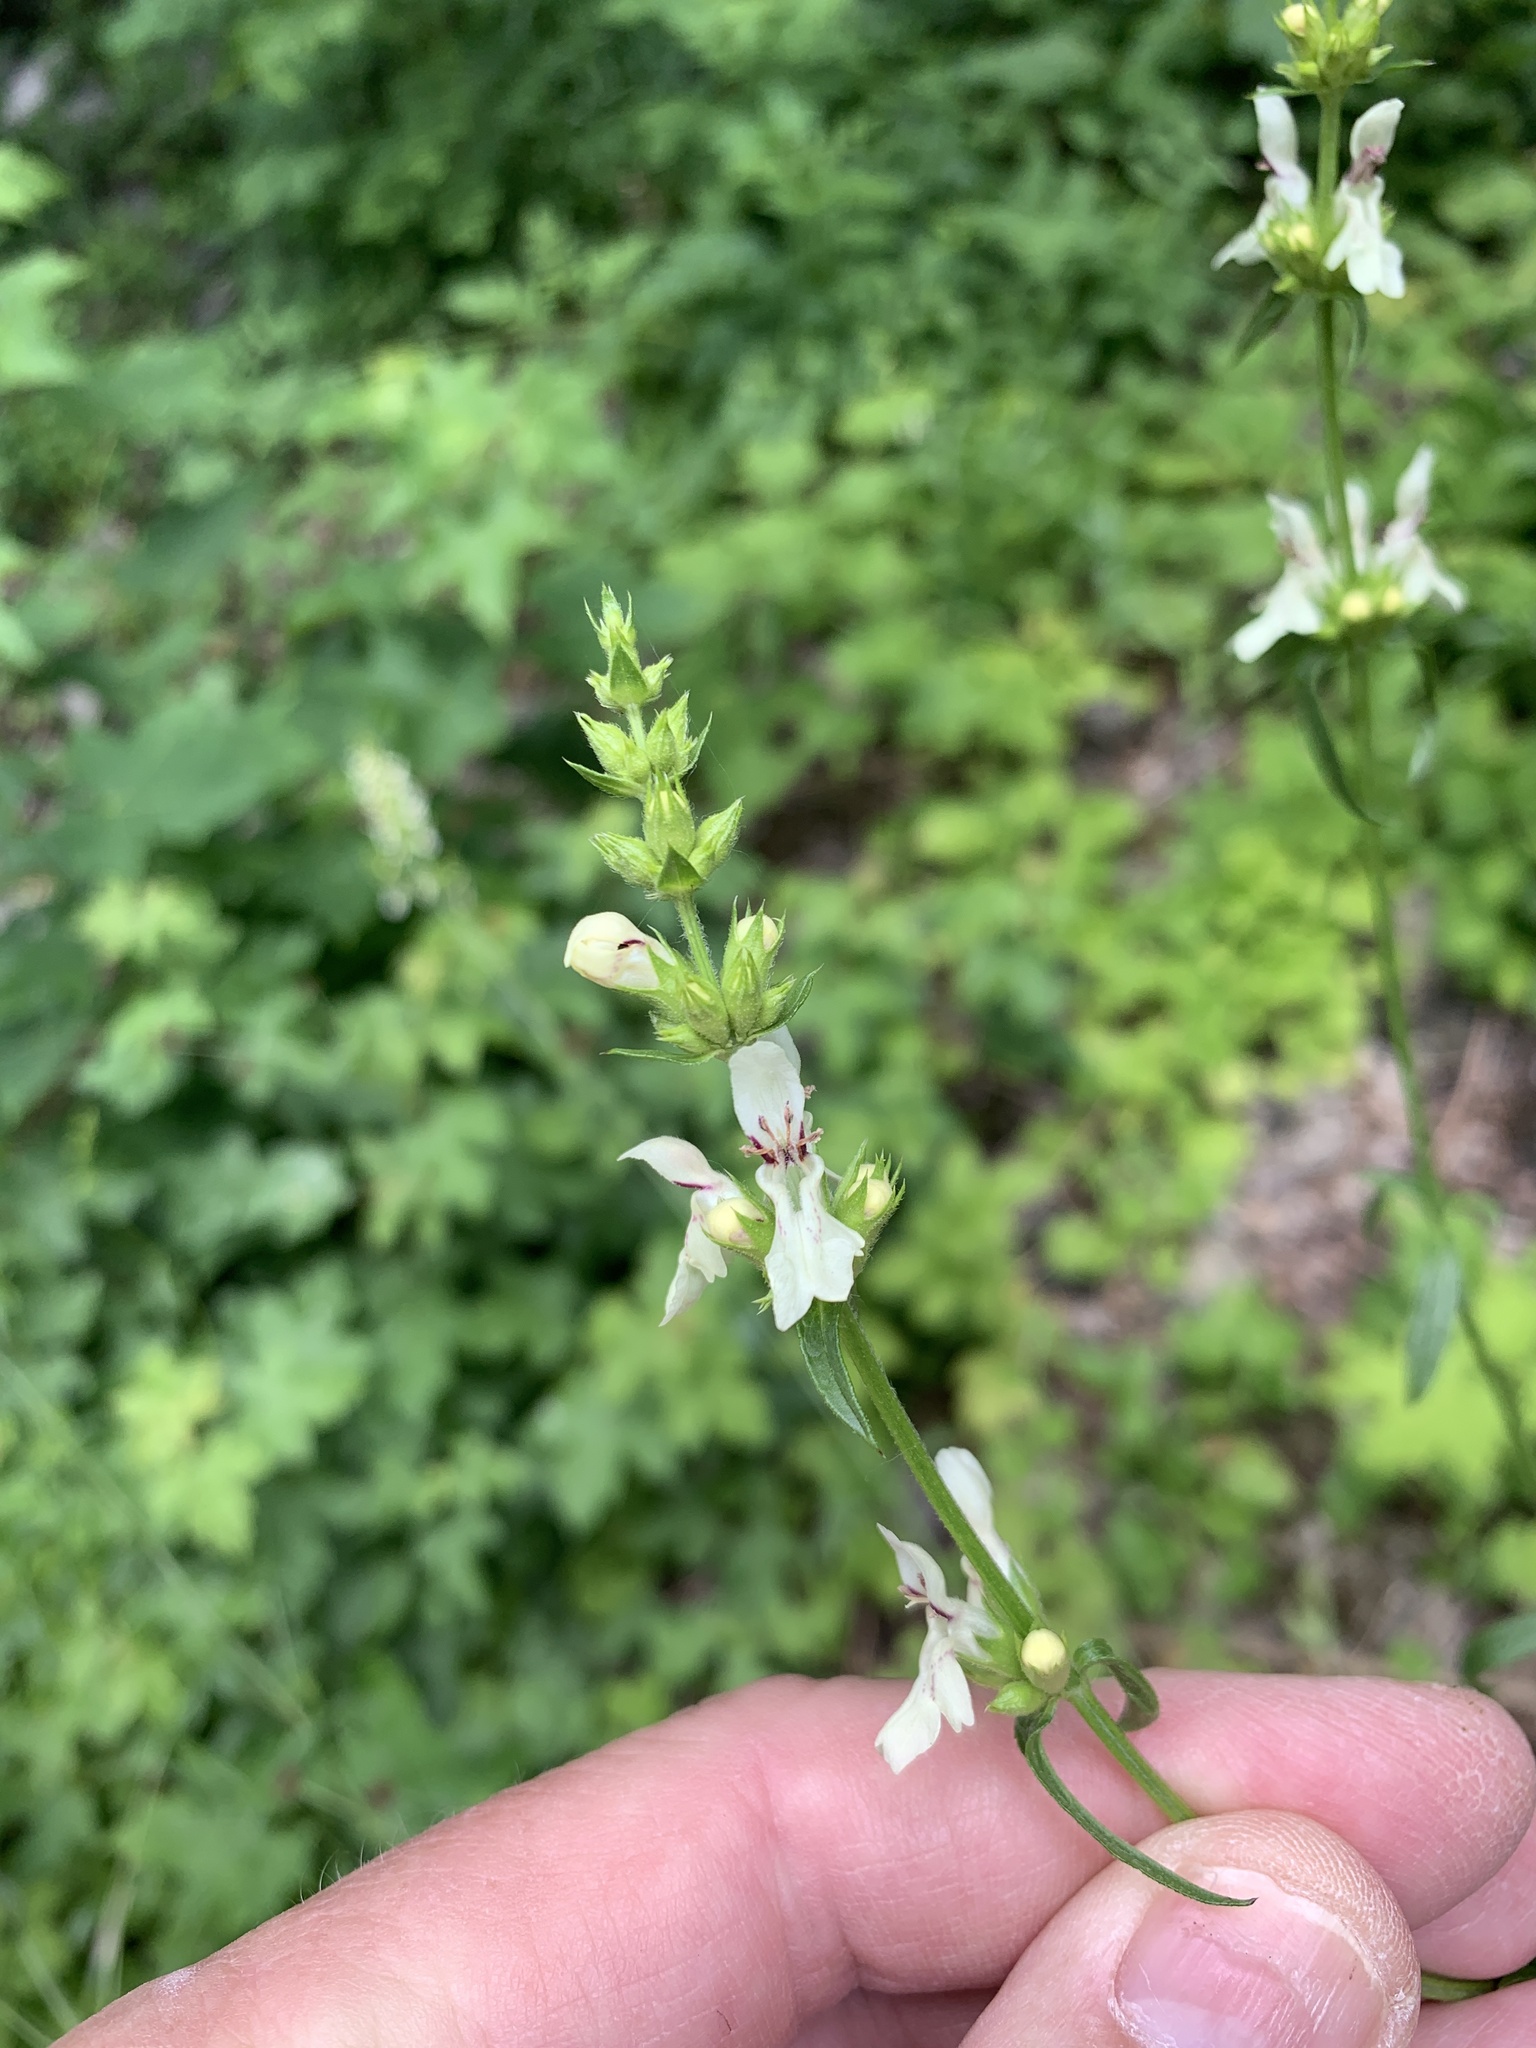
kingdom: Plantae
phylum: Tracheophyta
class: Magnoliopsida
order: Lamiales
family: Lamiaceae
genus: Stachys
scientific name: Stachys recta
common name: Perennial yellow-woundwort
